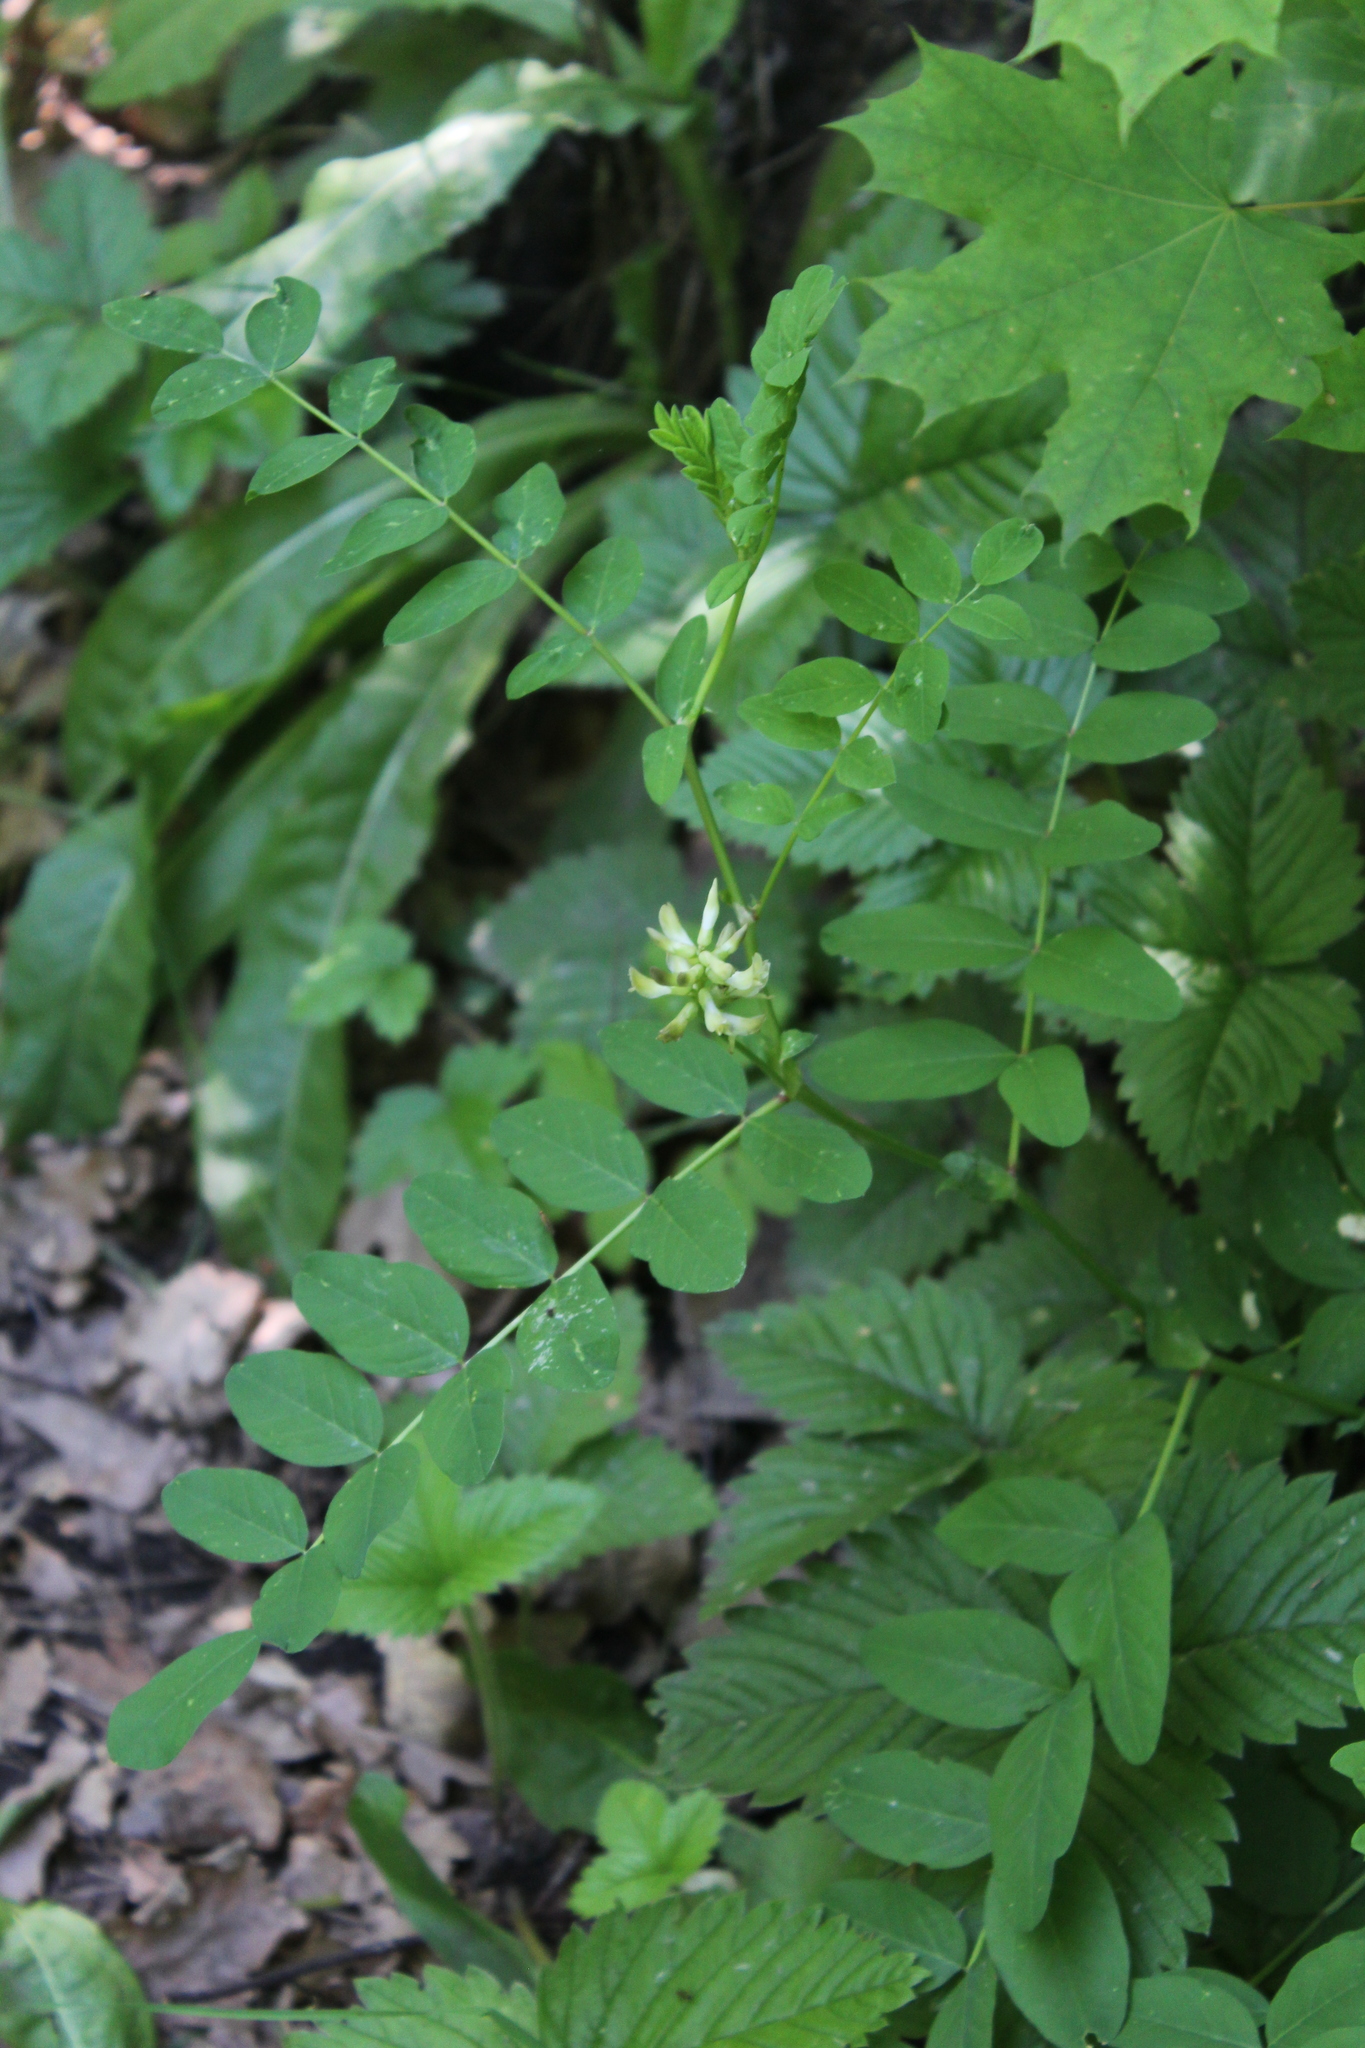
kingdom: Plantae
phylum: Tracheophyta
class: Magnoliopsida
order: Fabales
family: Fabaceae
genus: Astragalus
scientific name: Astragalus glycyphyllos
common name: Wild liquorice
